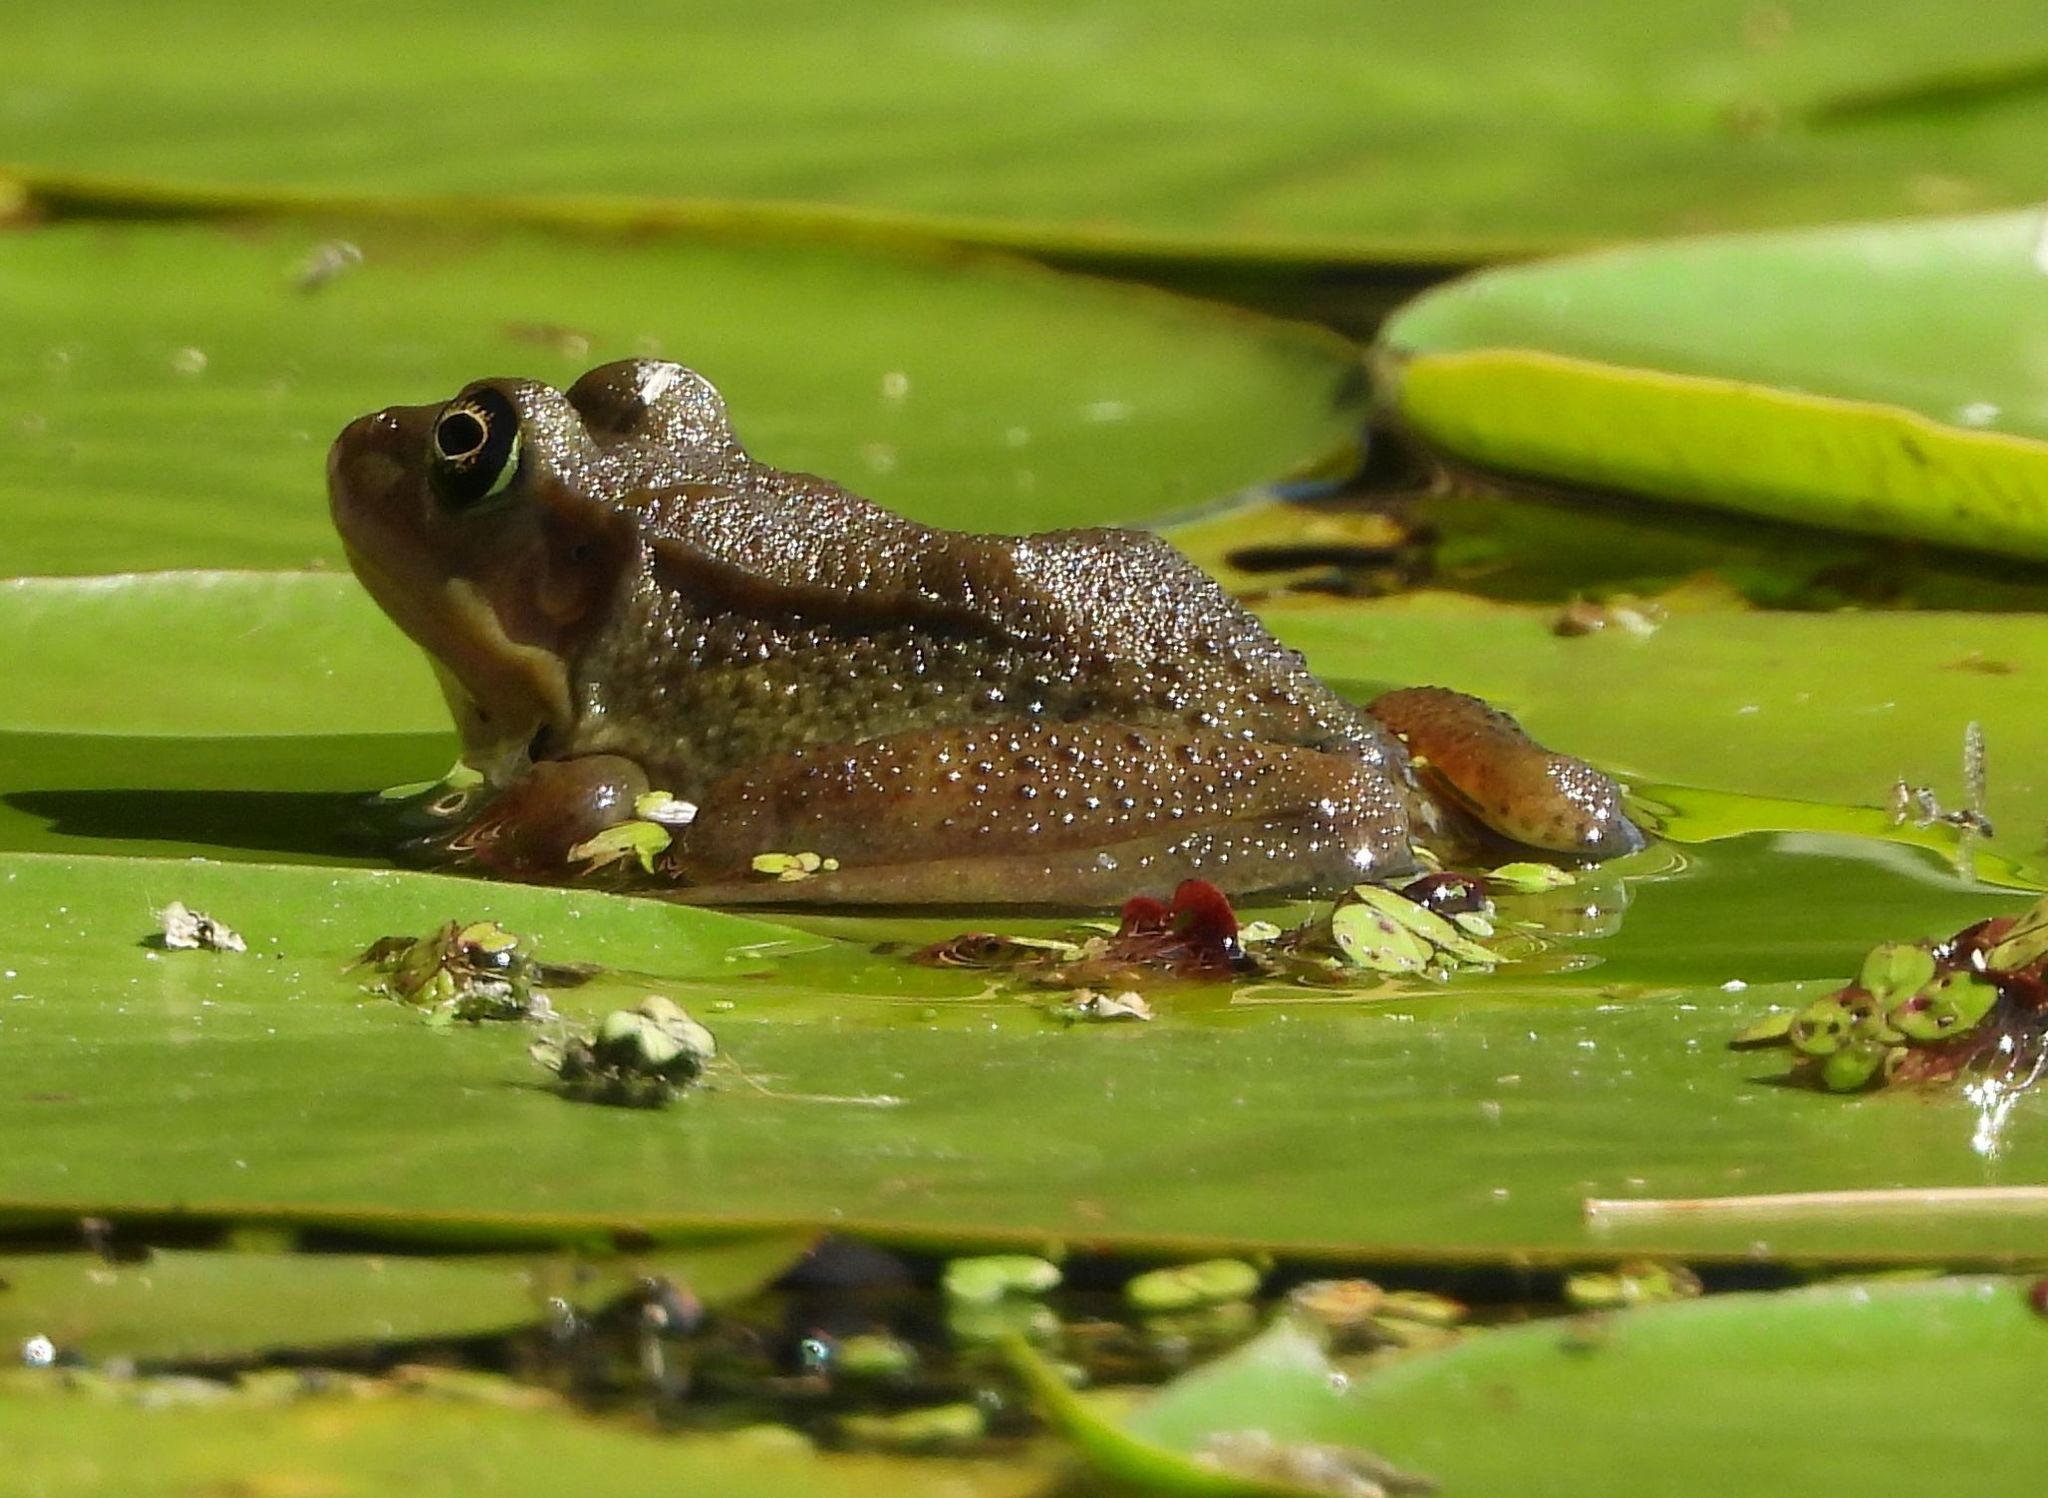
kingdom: Animalia
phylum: Chordata
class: Amphibia
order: Anura
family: Ranidae
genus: Lithobates
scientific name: Lithobates clamitans
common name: Green frog
